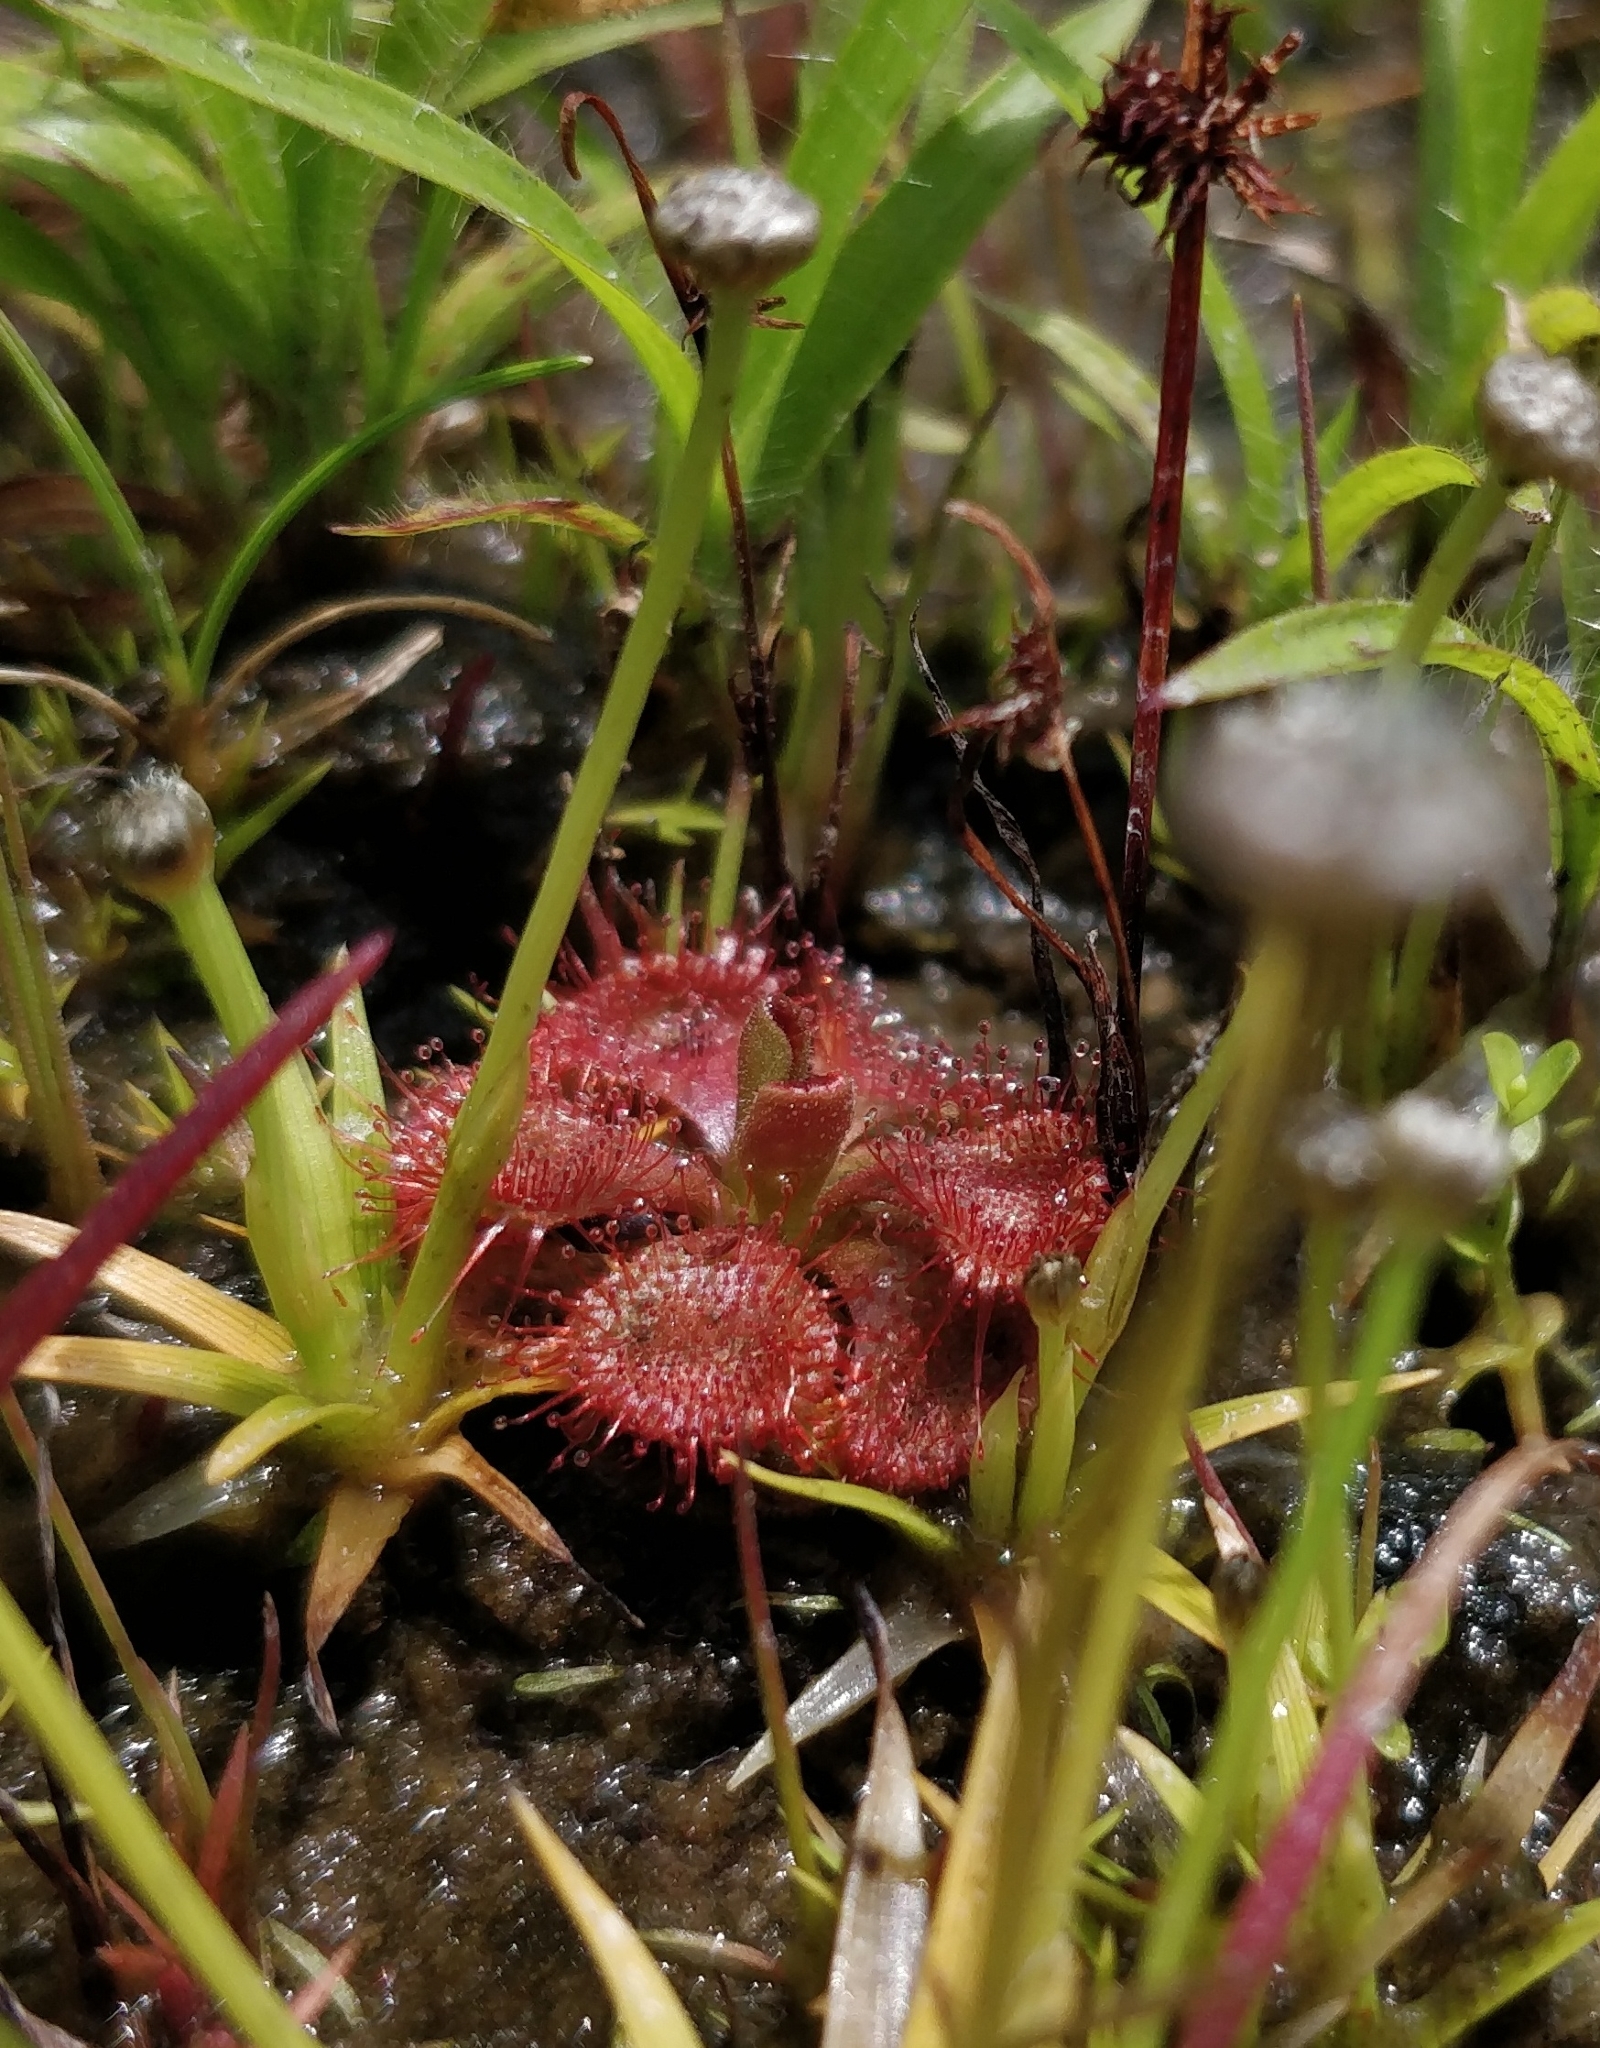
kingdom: Plantae
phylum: Tracheophyta
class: Magnoliopsida
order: Caryophyllales
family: Droseraceae
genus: Drosera
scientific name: Drosera spatulata
